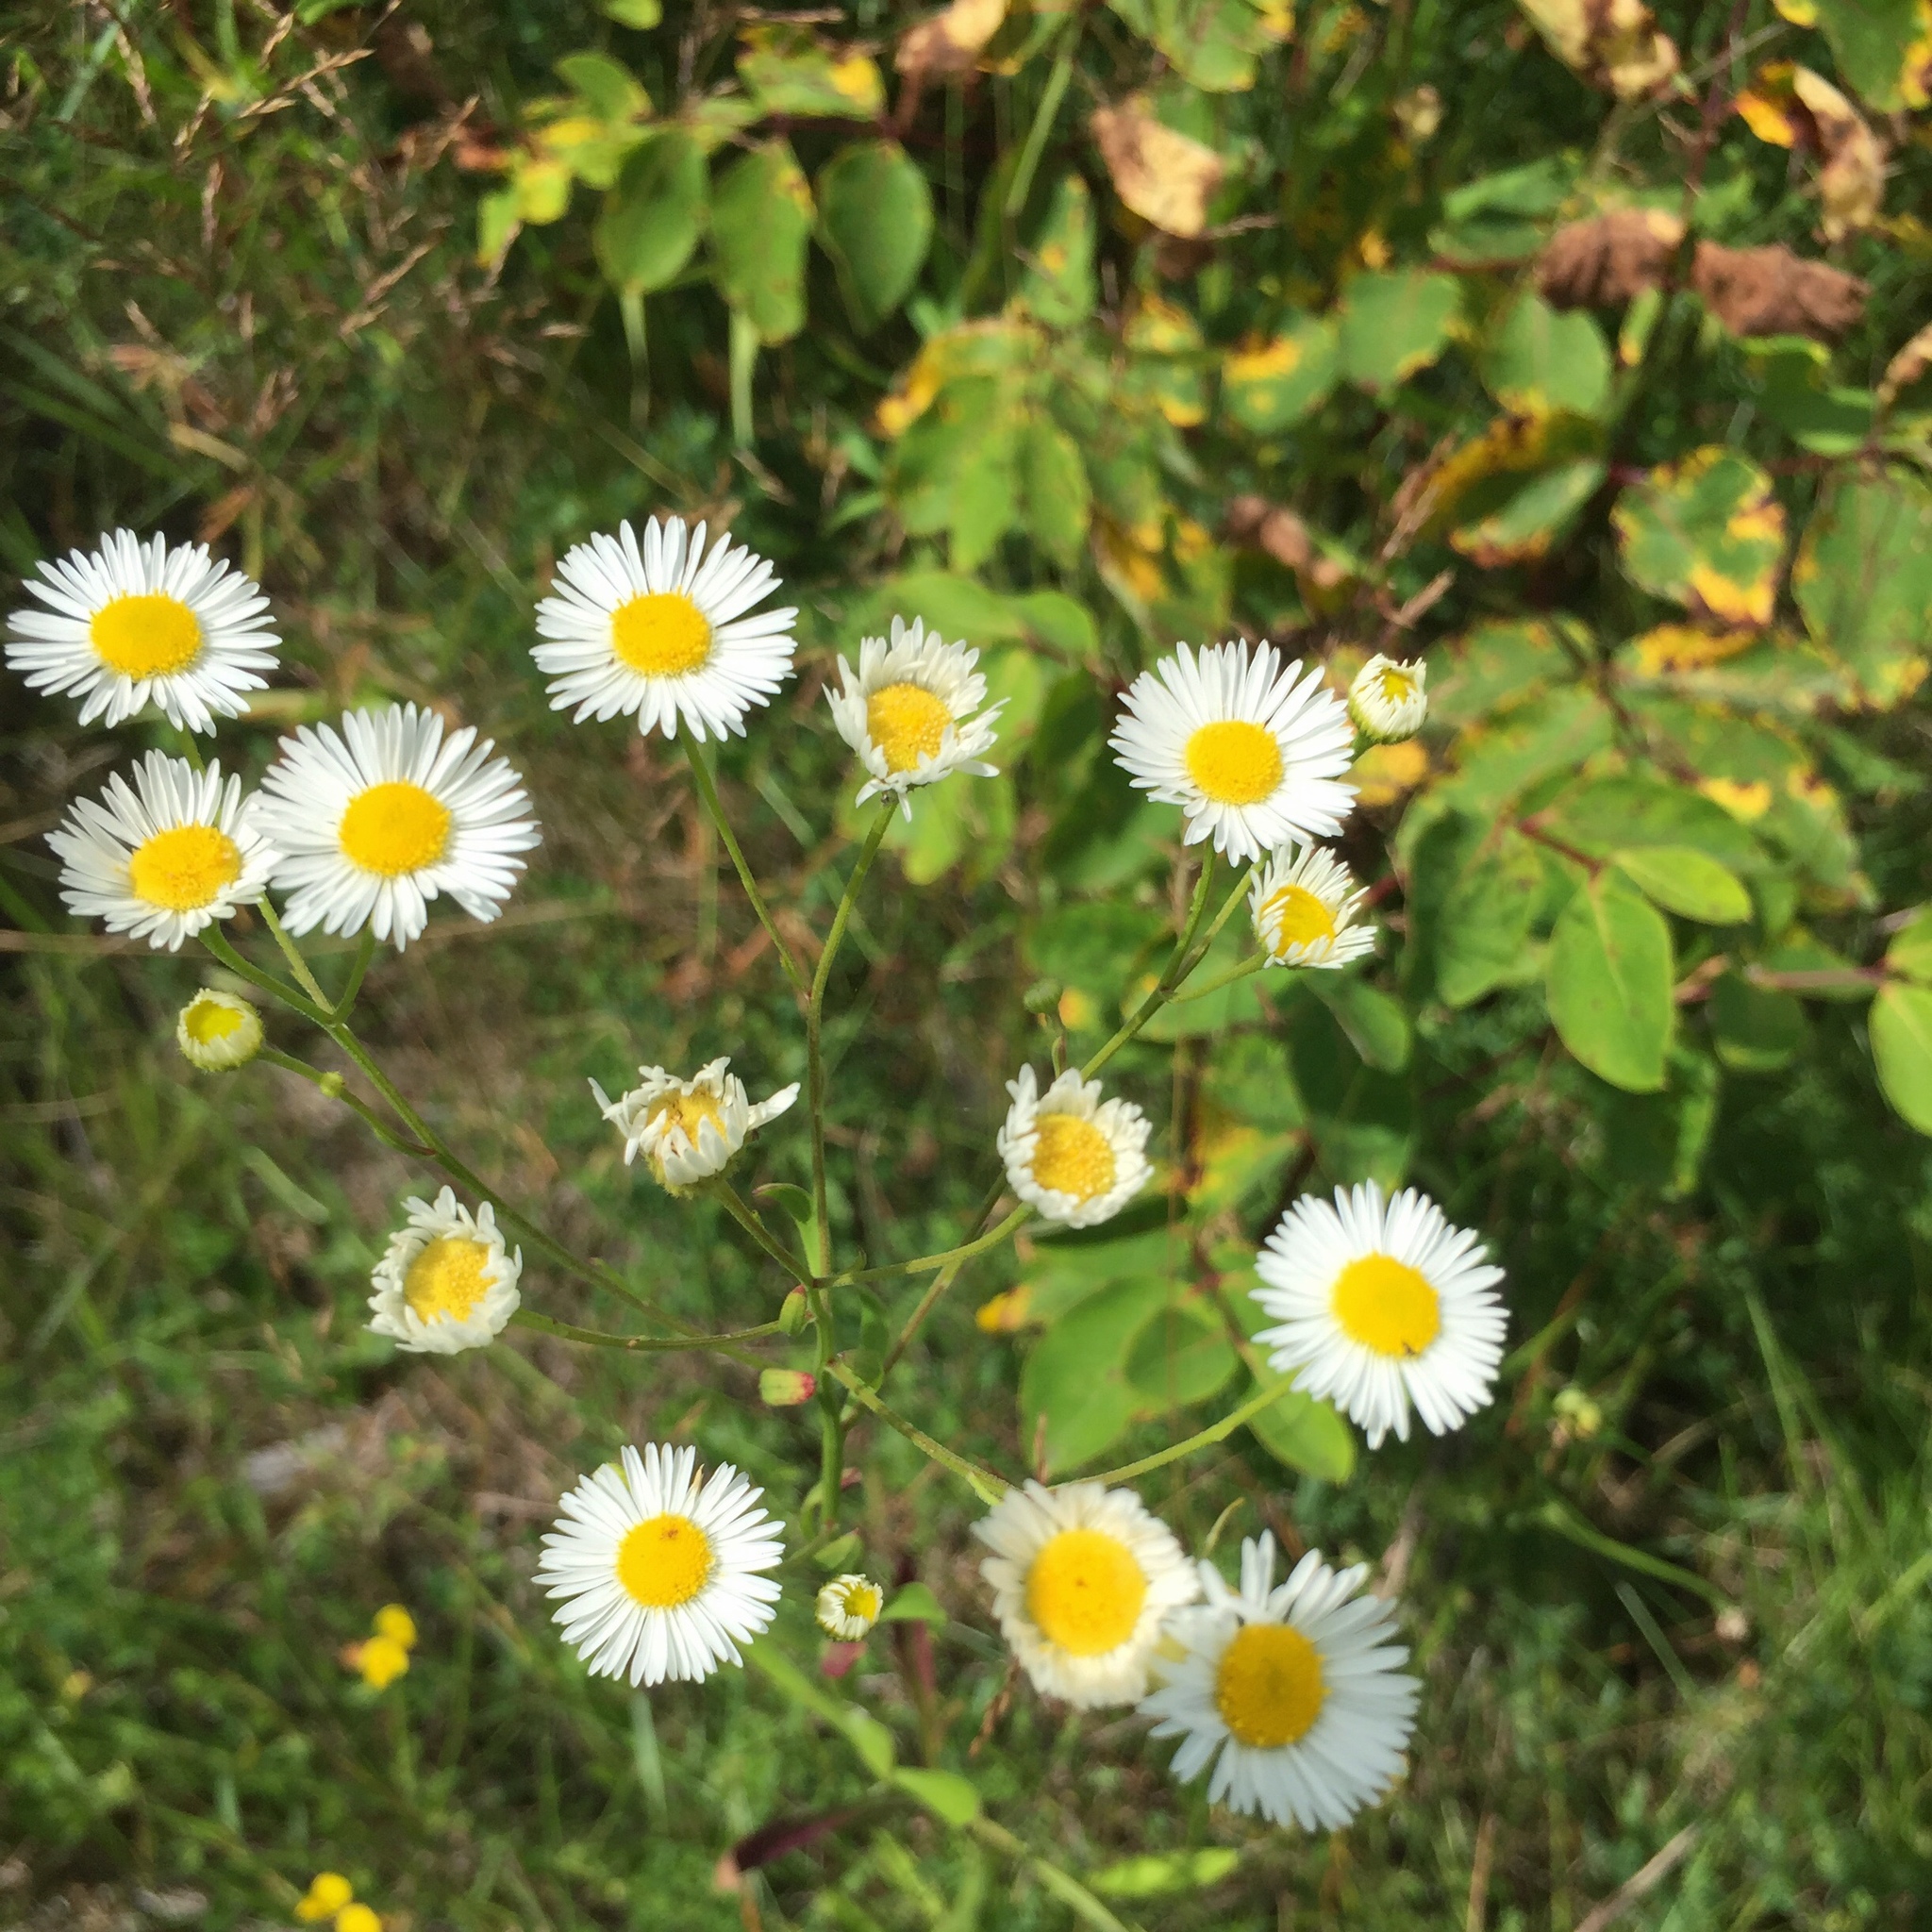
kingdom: Plantae
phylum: Tracheophyta
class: Magnoliopsida
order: Asterales
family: Asteraceae
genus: Erigeron
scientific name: Erigeron strigosus
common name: Common eastern fleabane
